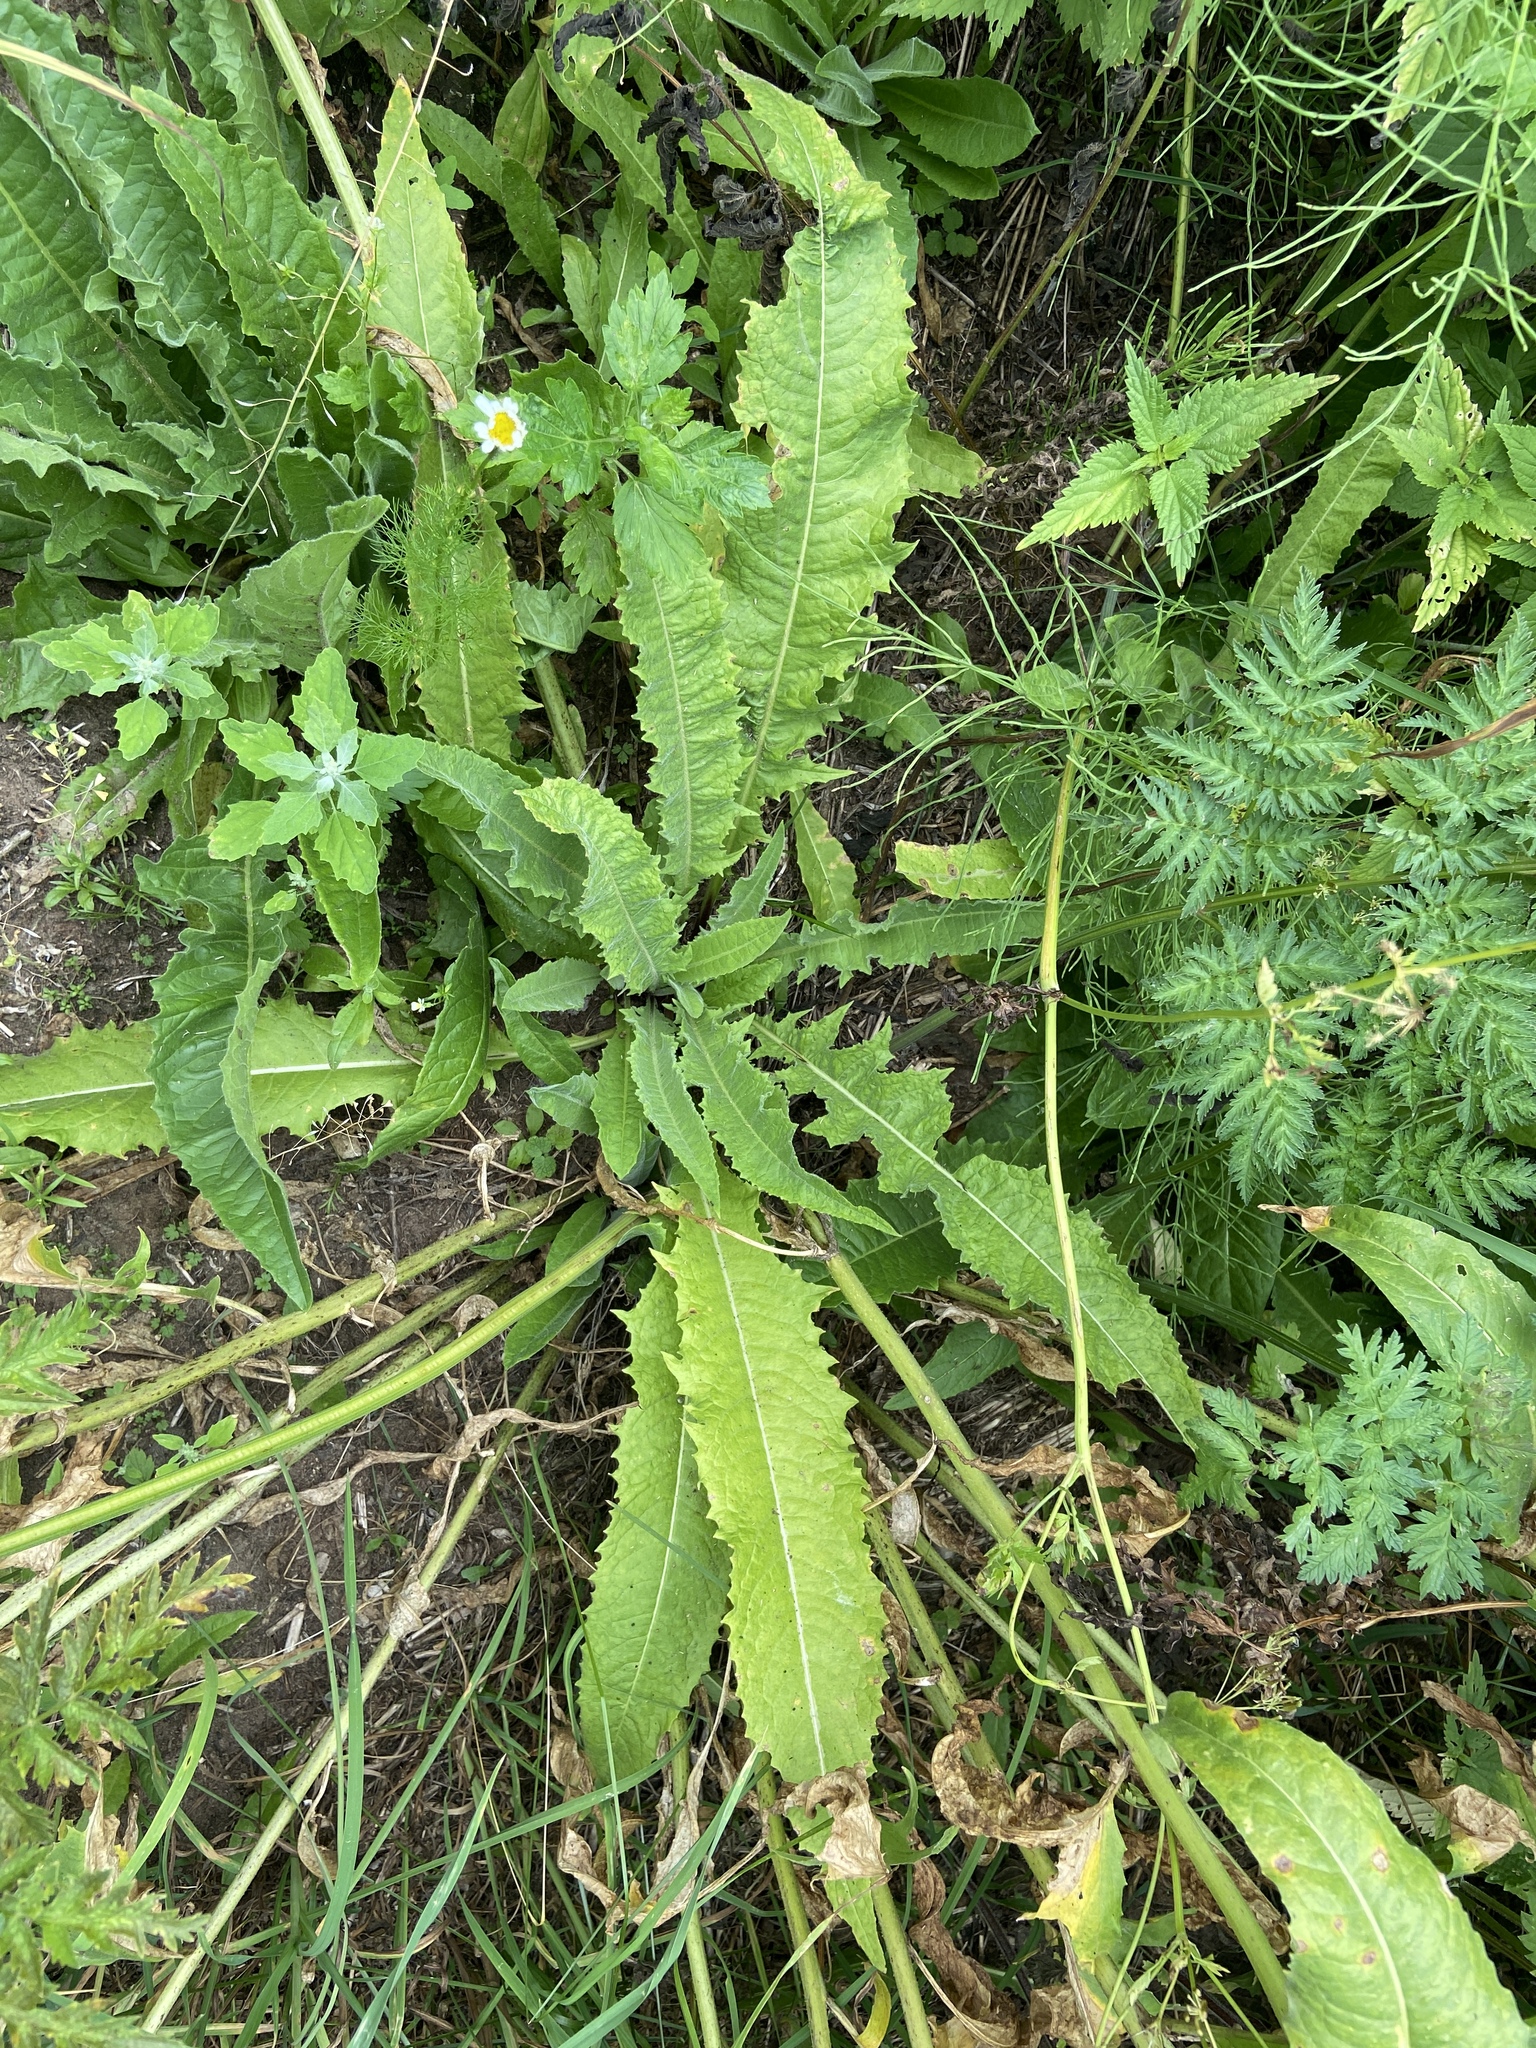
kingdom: Plantae
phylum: Tracheophyta
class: Magnoliopsida
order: Brassicales
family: Brassicaceae
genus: Bunias
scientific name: Bunias orientalis
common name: Warty-cabbage
